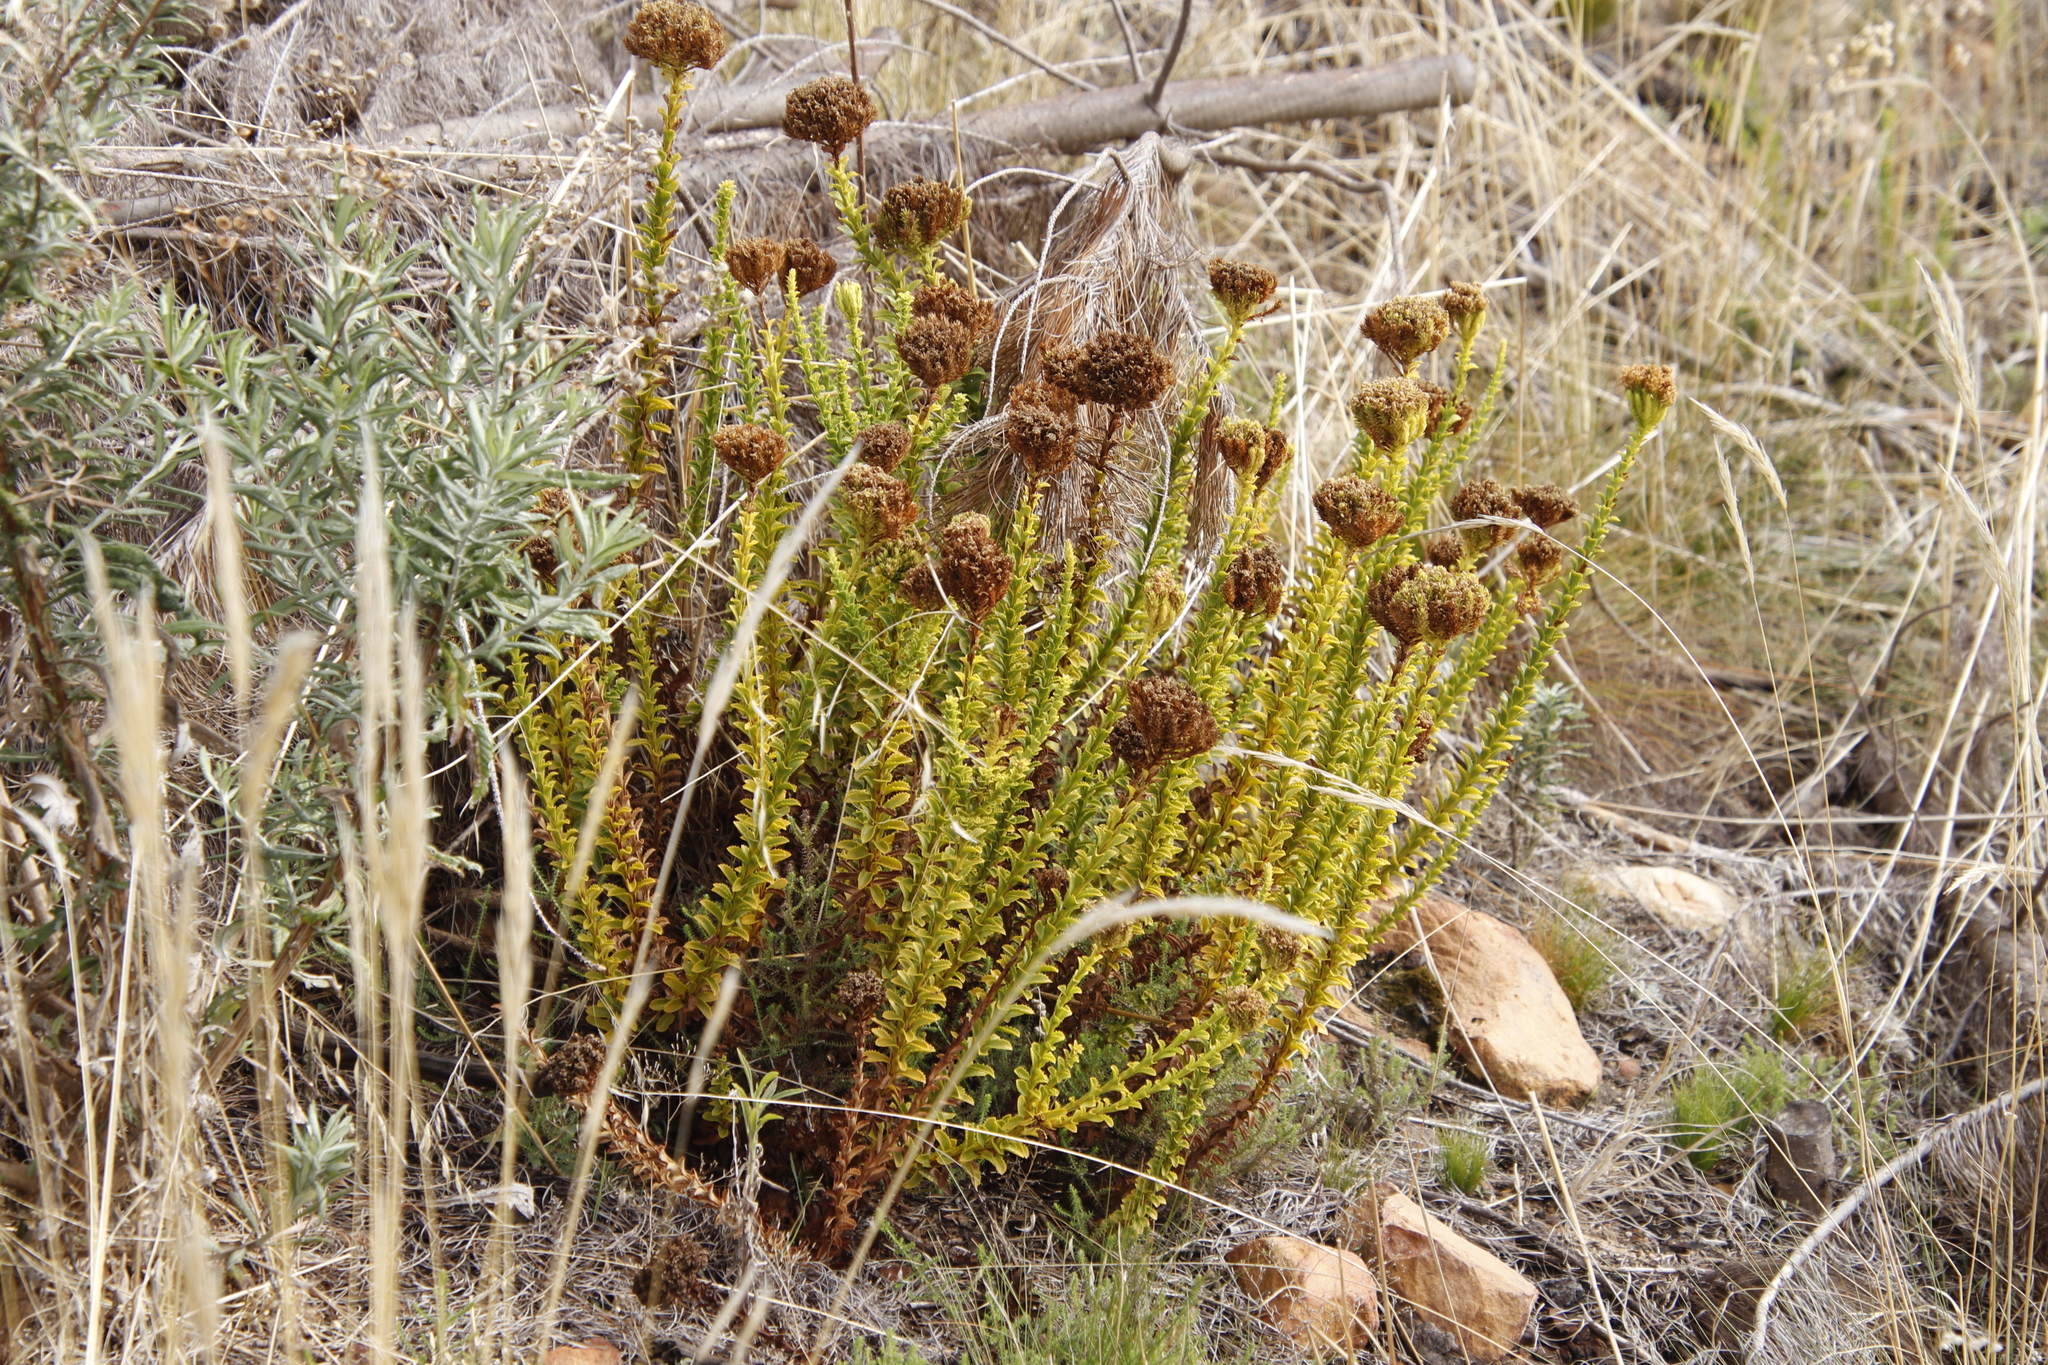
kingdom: Plantae
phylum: Tracheophyta
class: Magnoliopsida
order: Lamiales
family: Scrophulariaceae
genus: Pseudoselago
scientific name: Pseudoselago serrata
